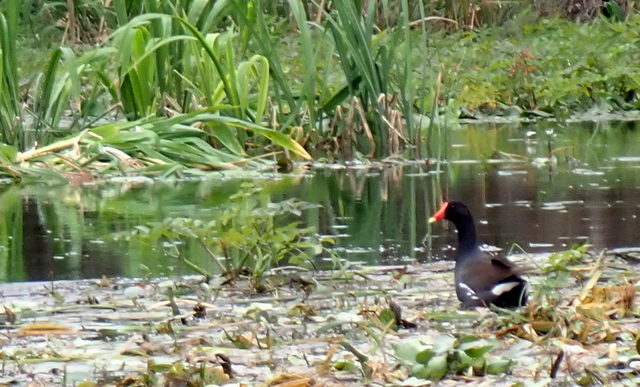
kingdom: Animalia
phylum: Chordata
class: Aves
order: Gruiformes
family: Rallidae
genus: Gallinula
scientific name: Gallinula chloropus
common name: Common moorhen
